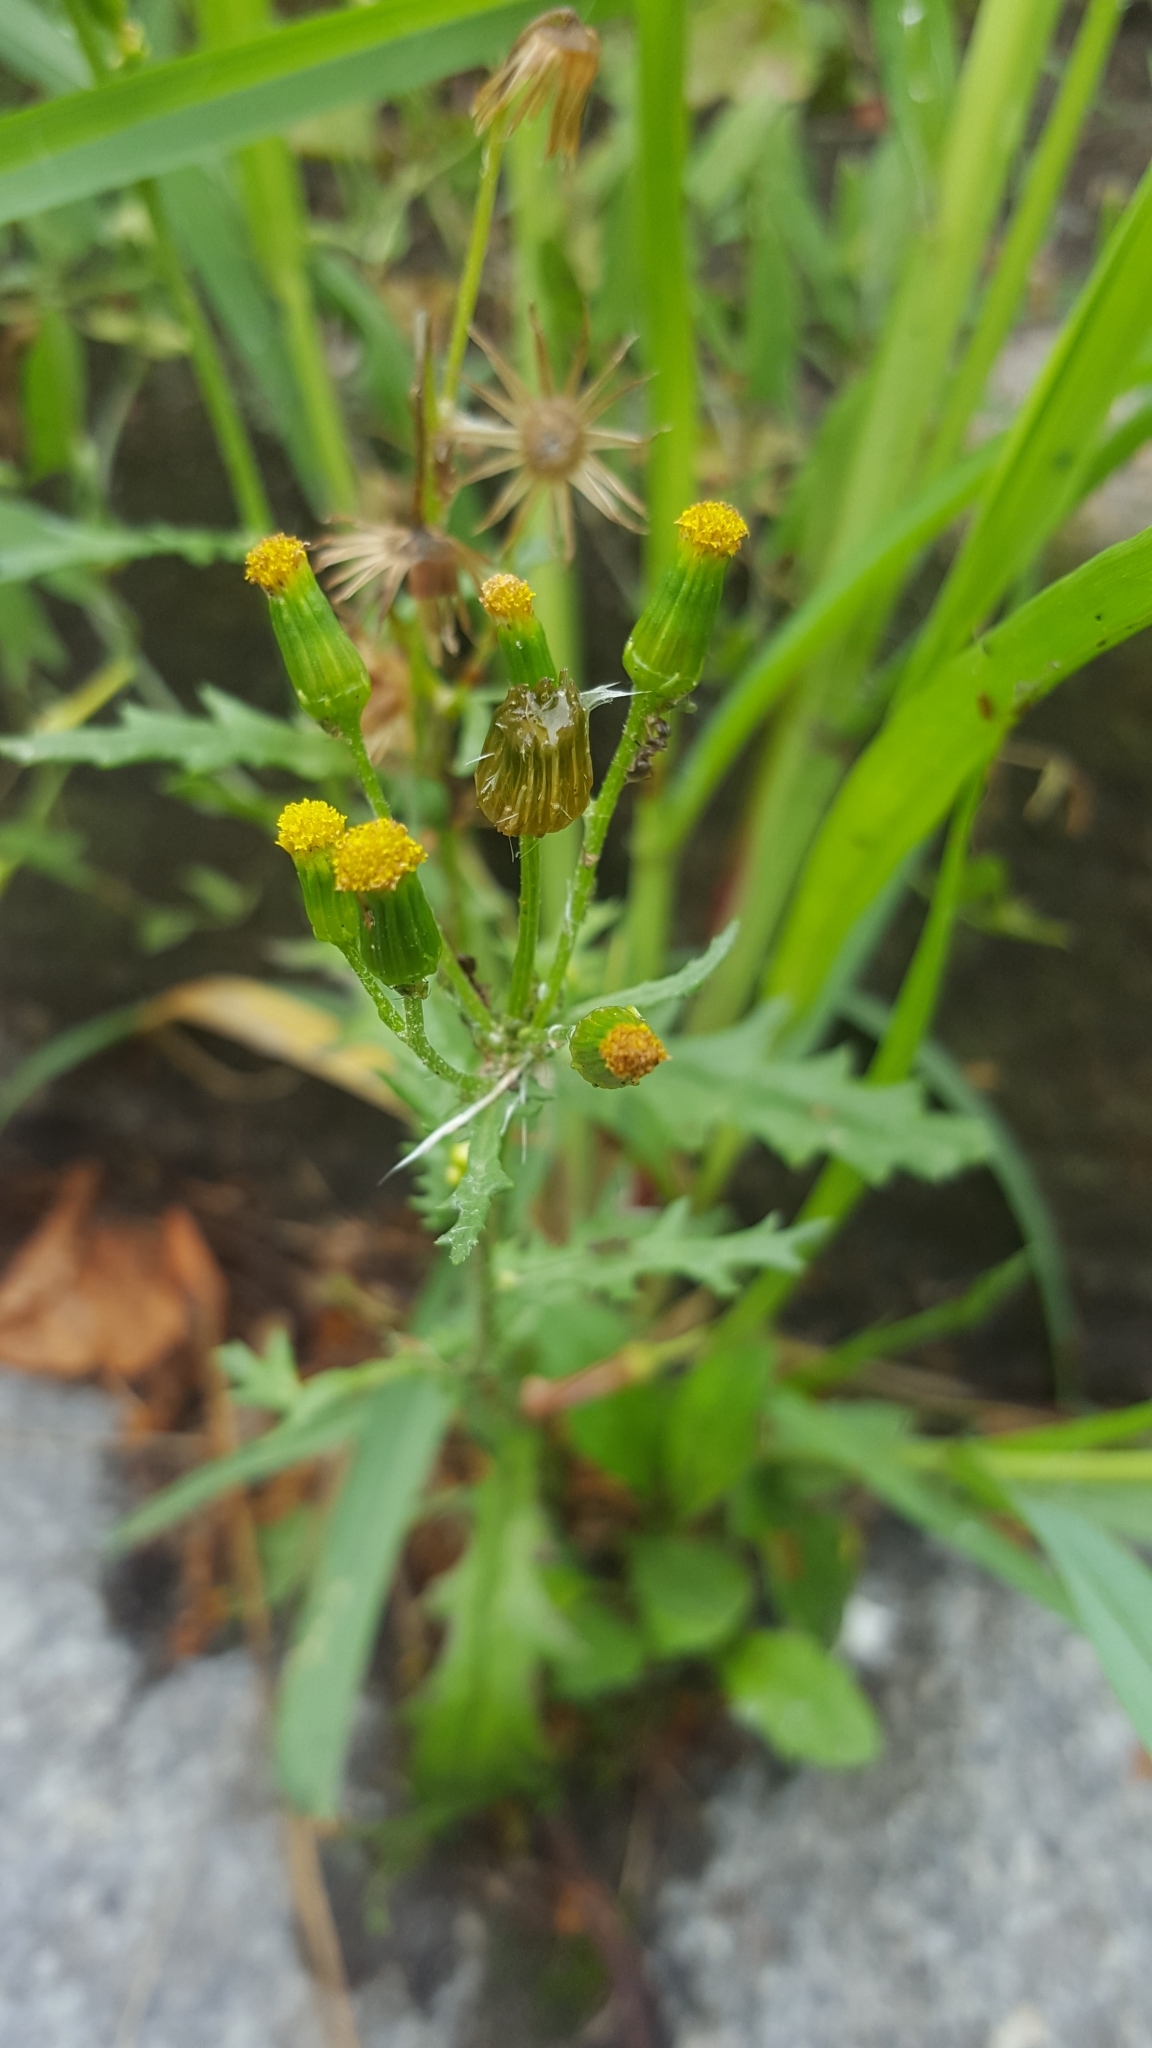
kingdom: Plantae
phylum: Tracheophyta
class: Magnoliopsida
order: Asterales
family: Asteraceae
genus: Senecio
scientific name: Senecio vulgaris
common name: Old-man-in-the-spring
